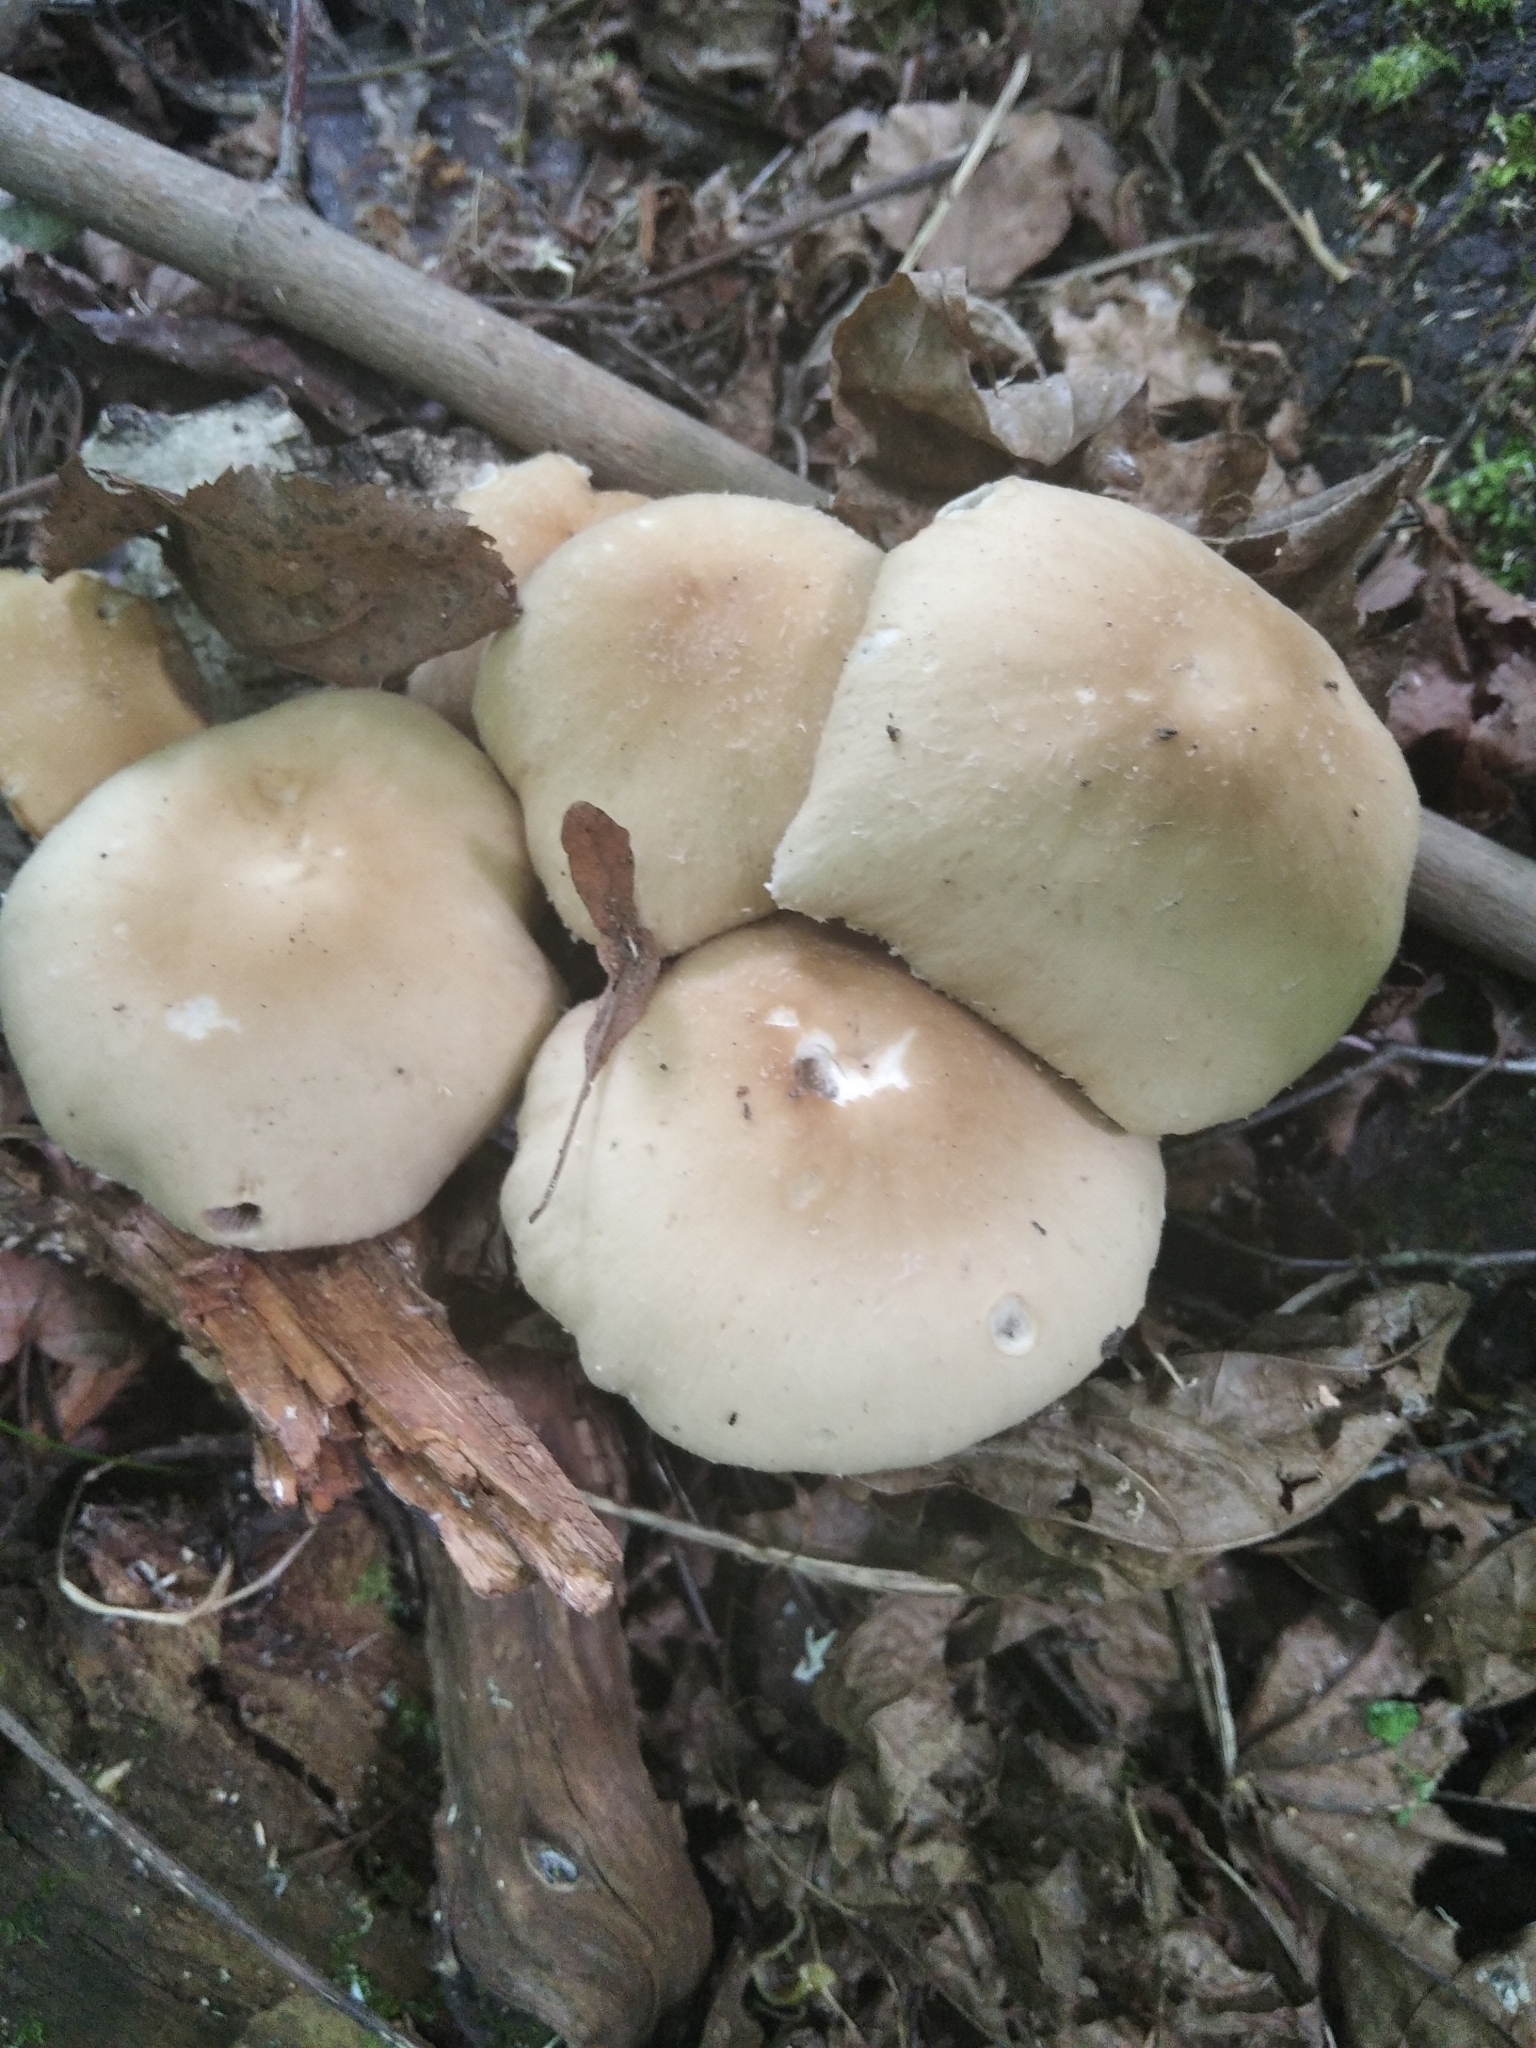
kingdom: Fungi
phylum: Basidiomycota
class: Agaricomycetes
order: Agaricales
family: Psathyrellaceae
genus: Candolleomyces
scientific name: Candolleomyces candolleanus
